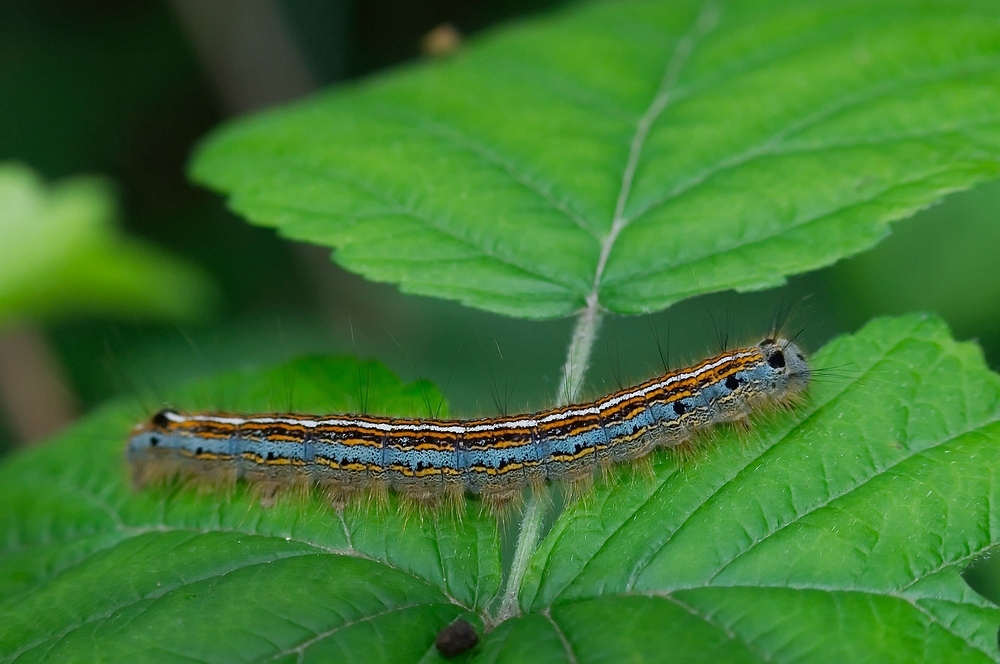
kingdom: Animalia
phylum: Arthropoda
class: Insecta
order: Lepidoptera
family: Lasiocampidae
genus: Malacosoma
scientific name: Malacosoma neustria
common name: The lackey
